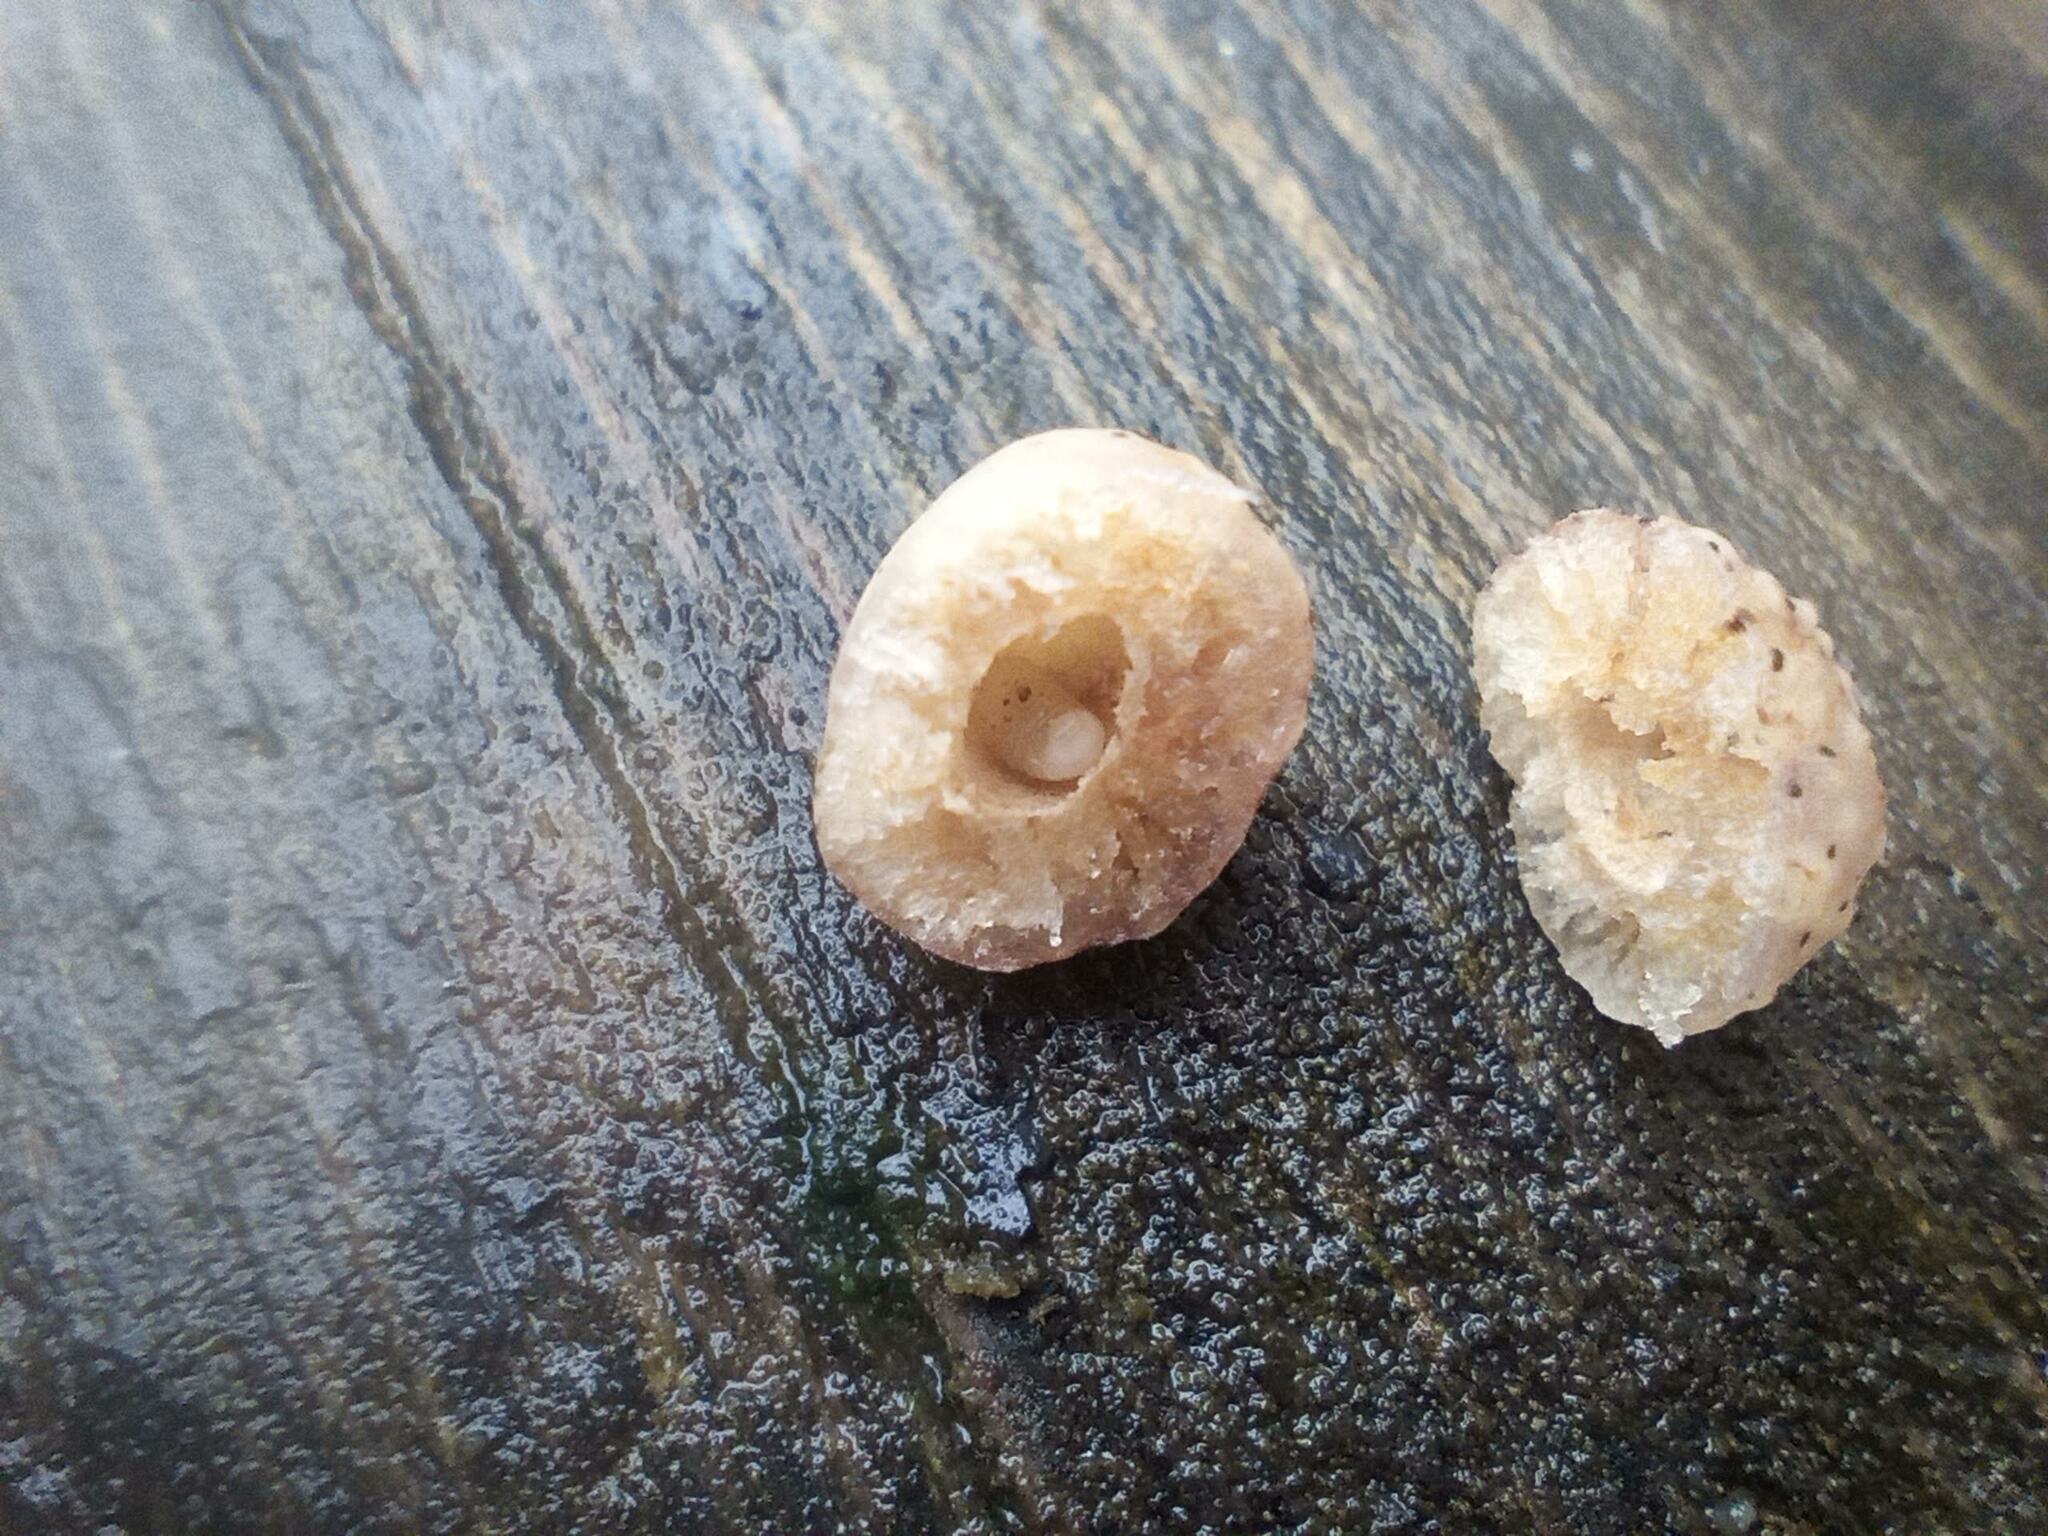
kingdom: Animalia
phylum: Arthropoda
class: Insecta
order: Hymenoptera
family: Cynipidae
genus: Cynips
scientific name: Cynips longiventris
